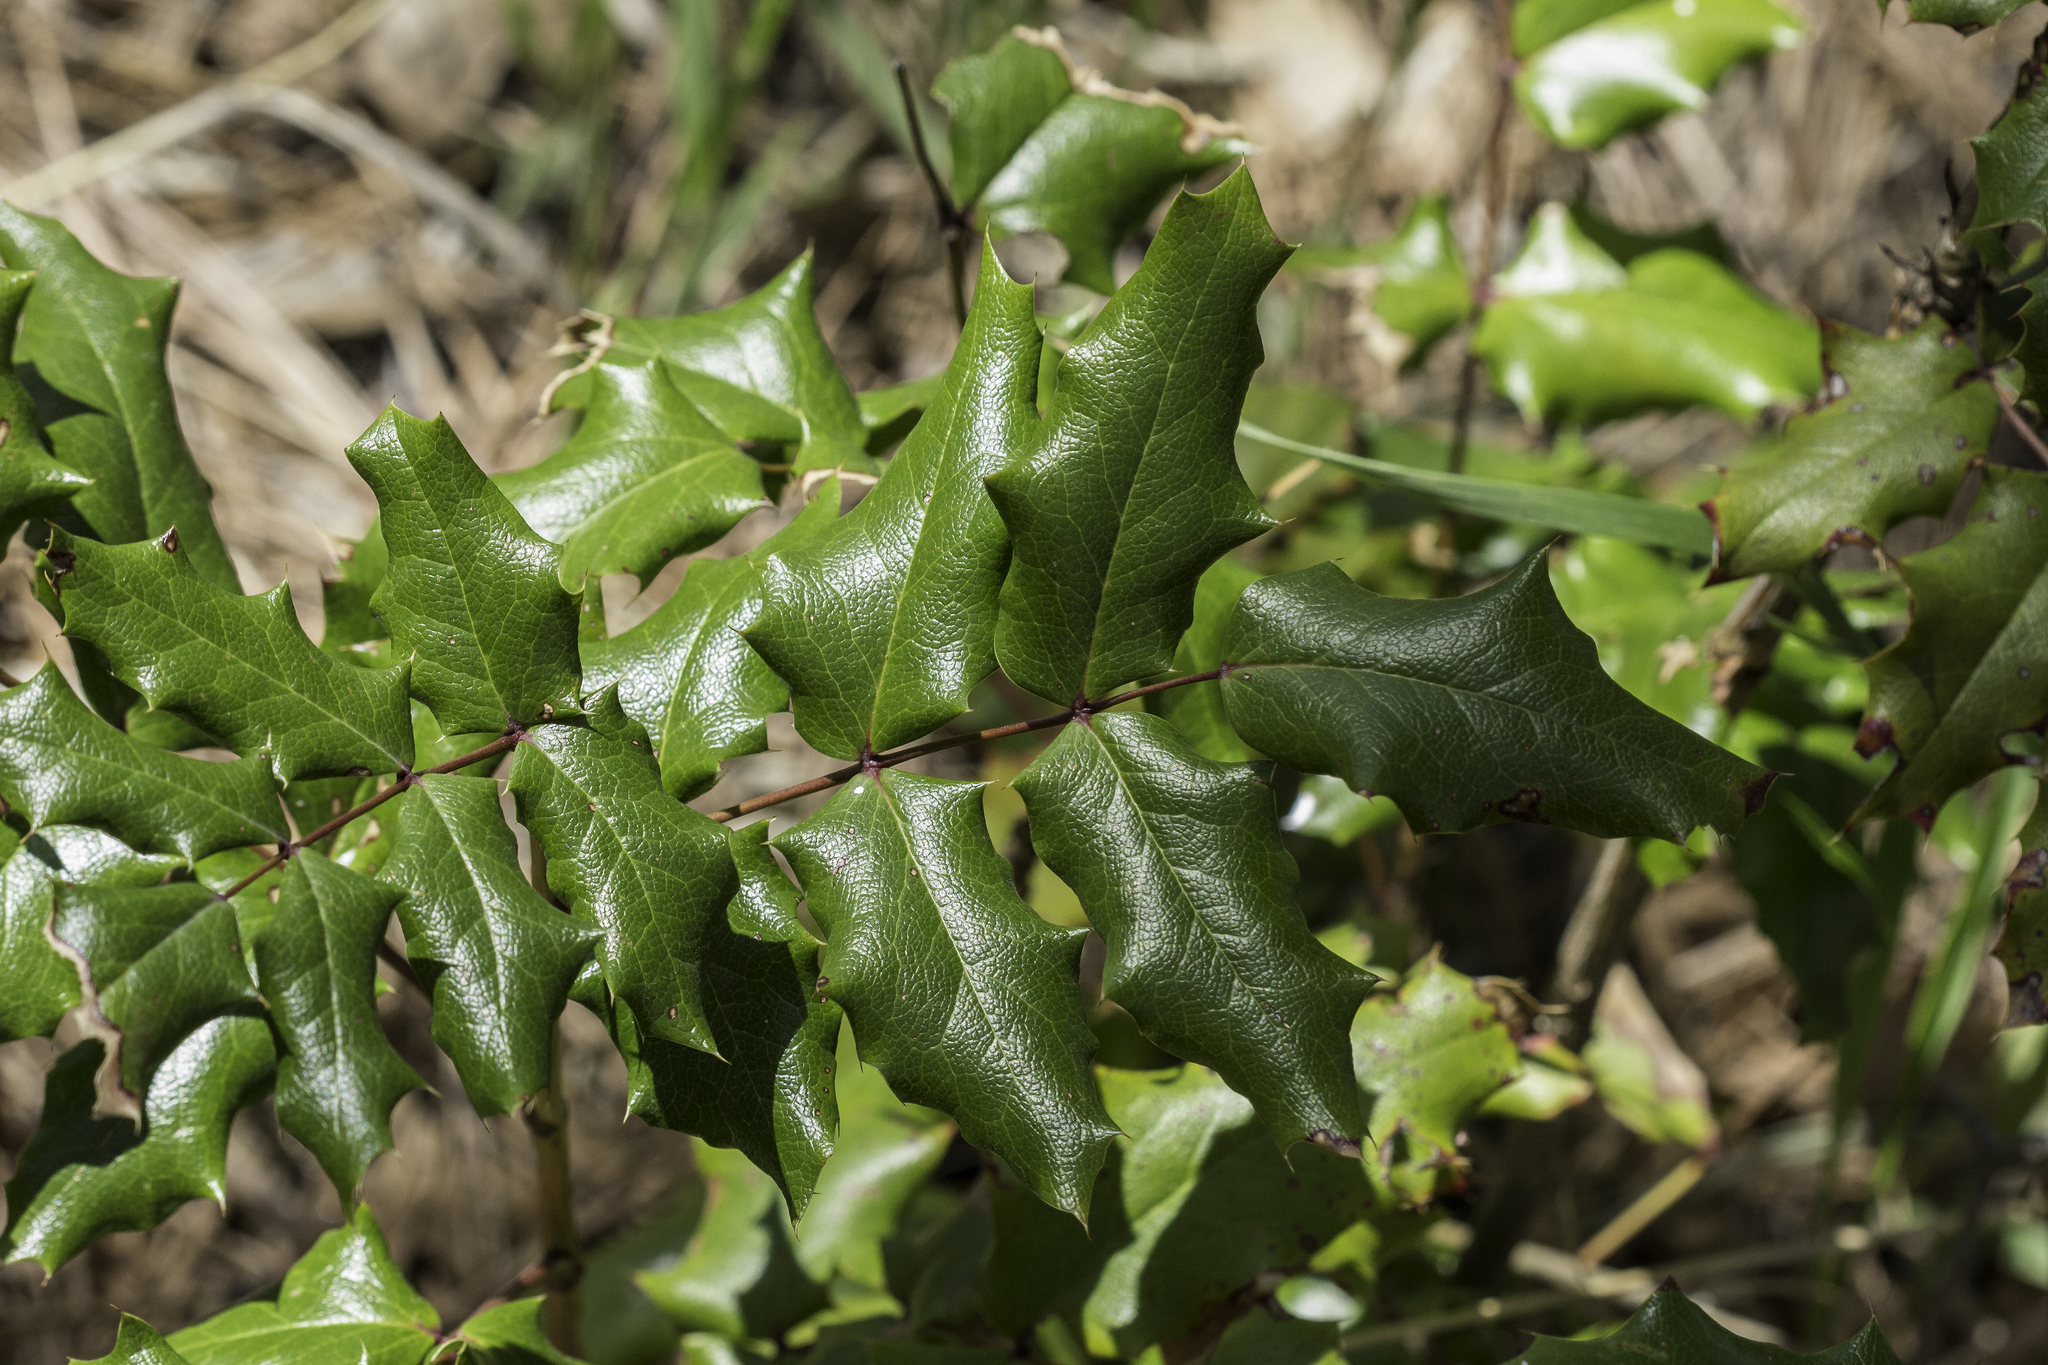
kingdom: Plantae
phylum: Tracheophyta
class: Magnoliopsida
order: Ranunculales
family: Berberidaceae
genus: Mahonia
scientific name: Mahonia aquifolium
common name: Oregon-grape
